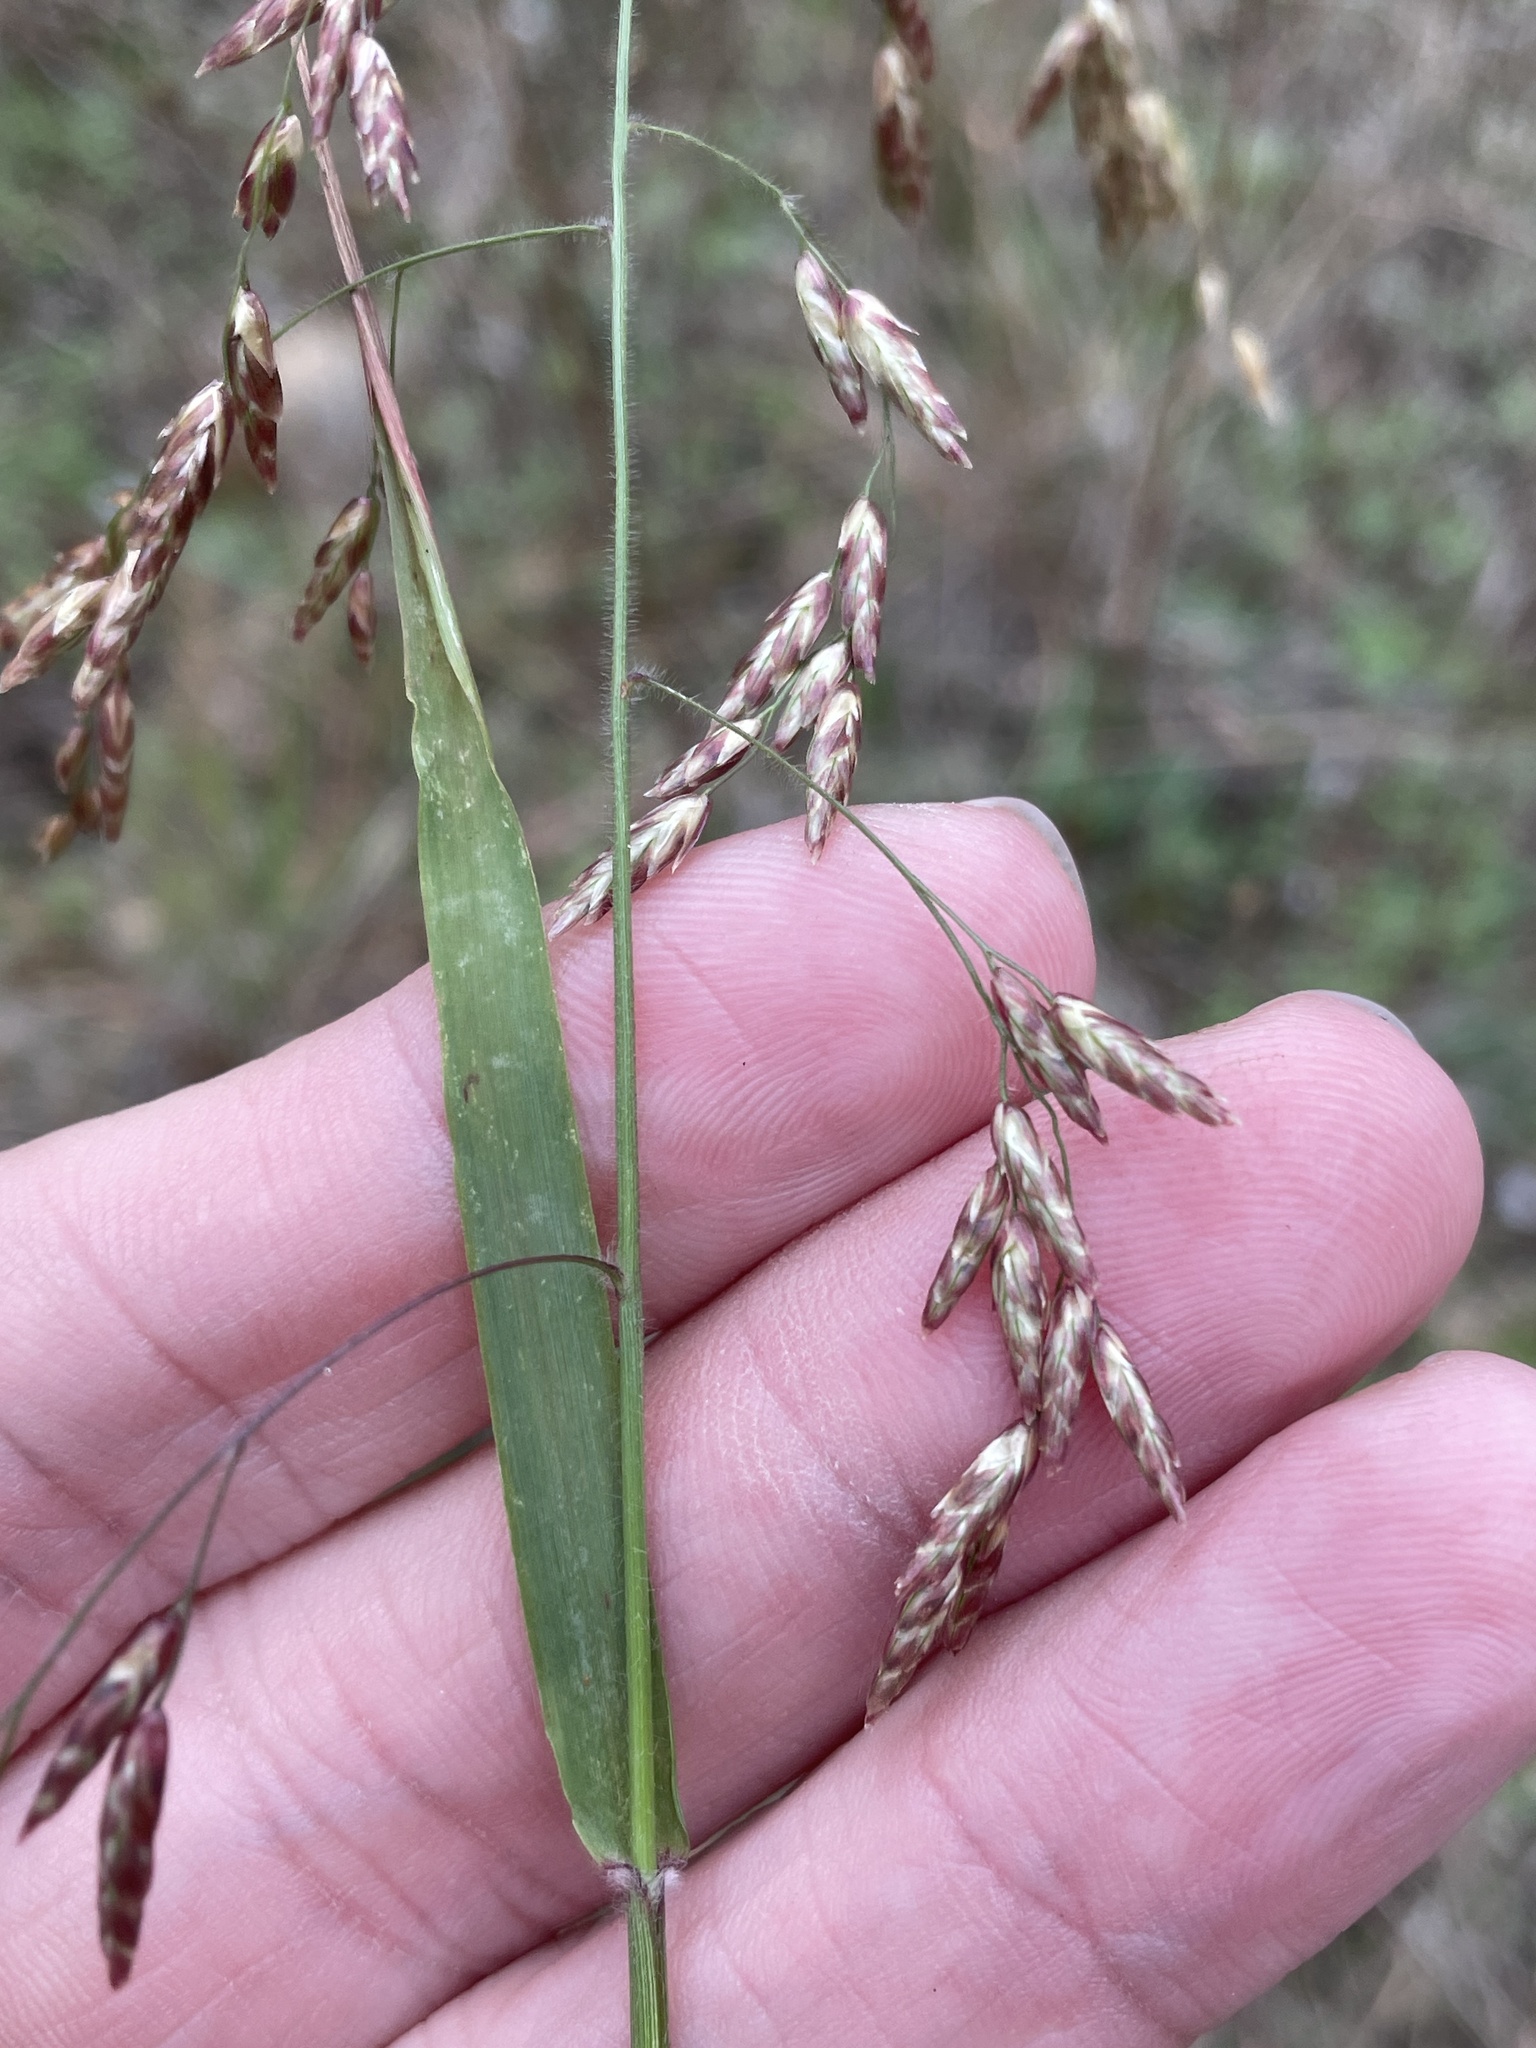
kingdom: Plantae
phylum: Tracheophyta
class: Liliopsida
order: Poales
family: Poaceae
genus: Tridens
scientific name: Tridens texanus
